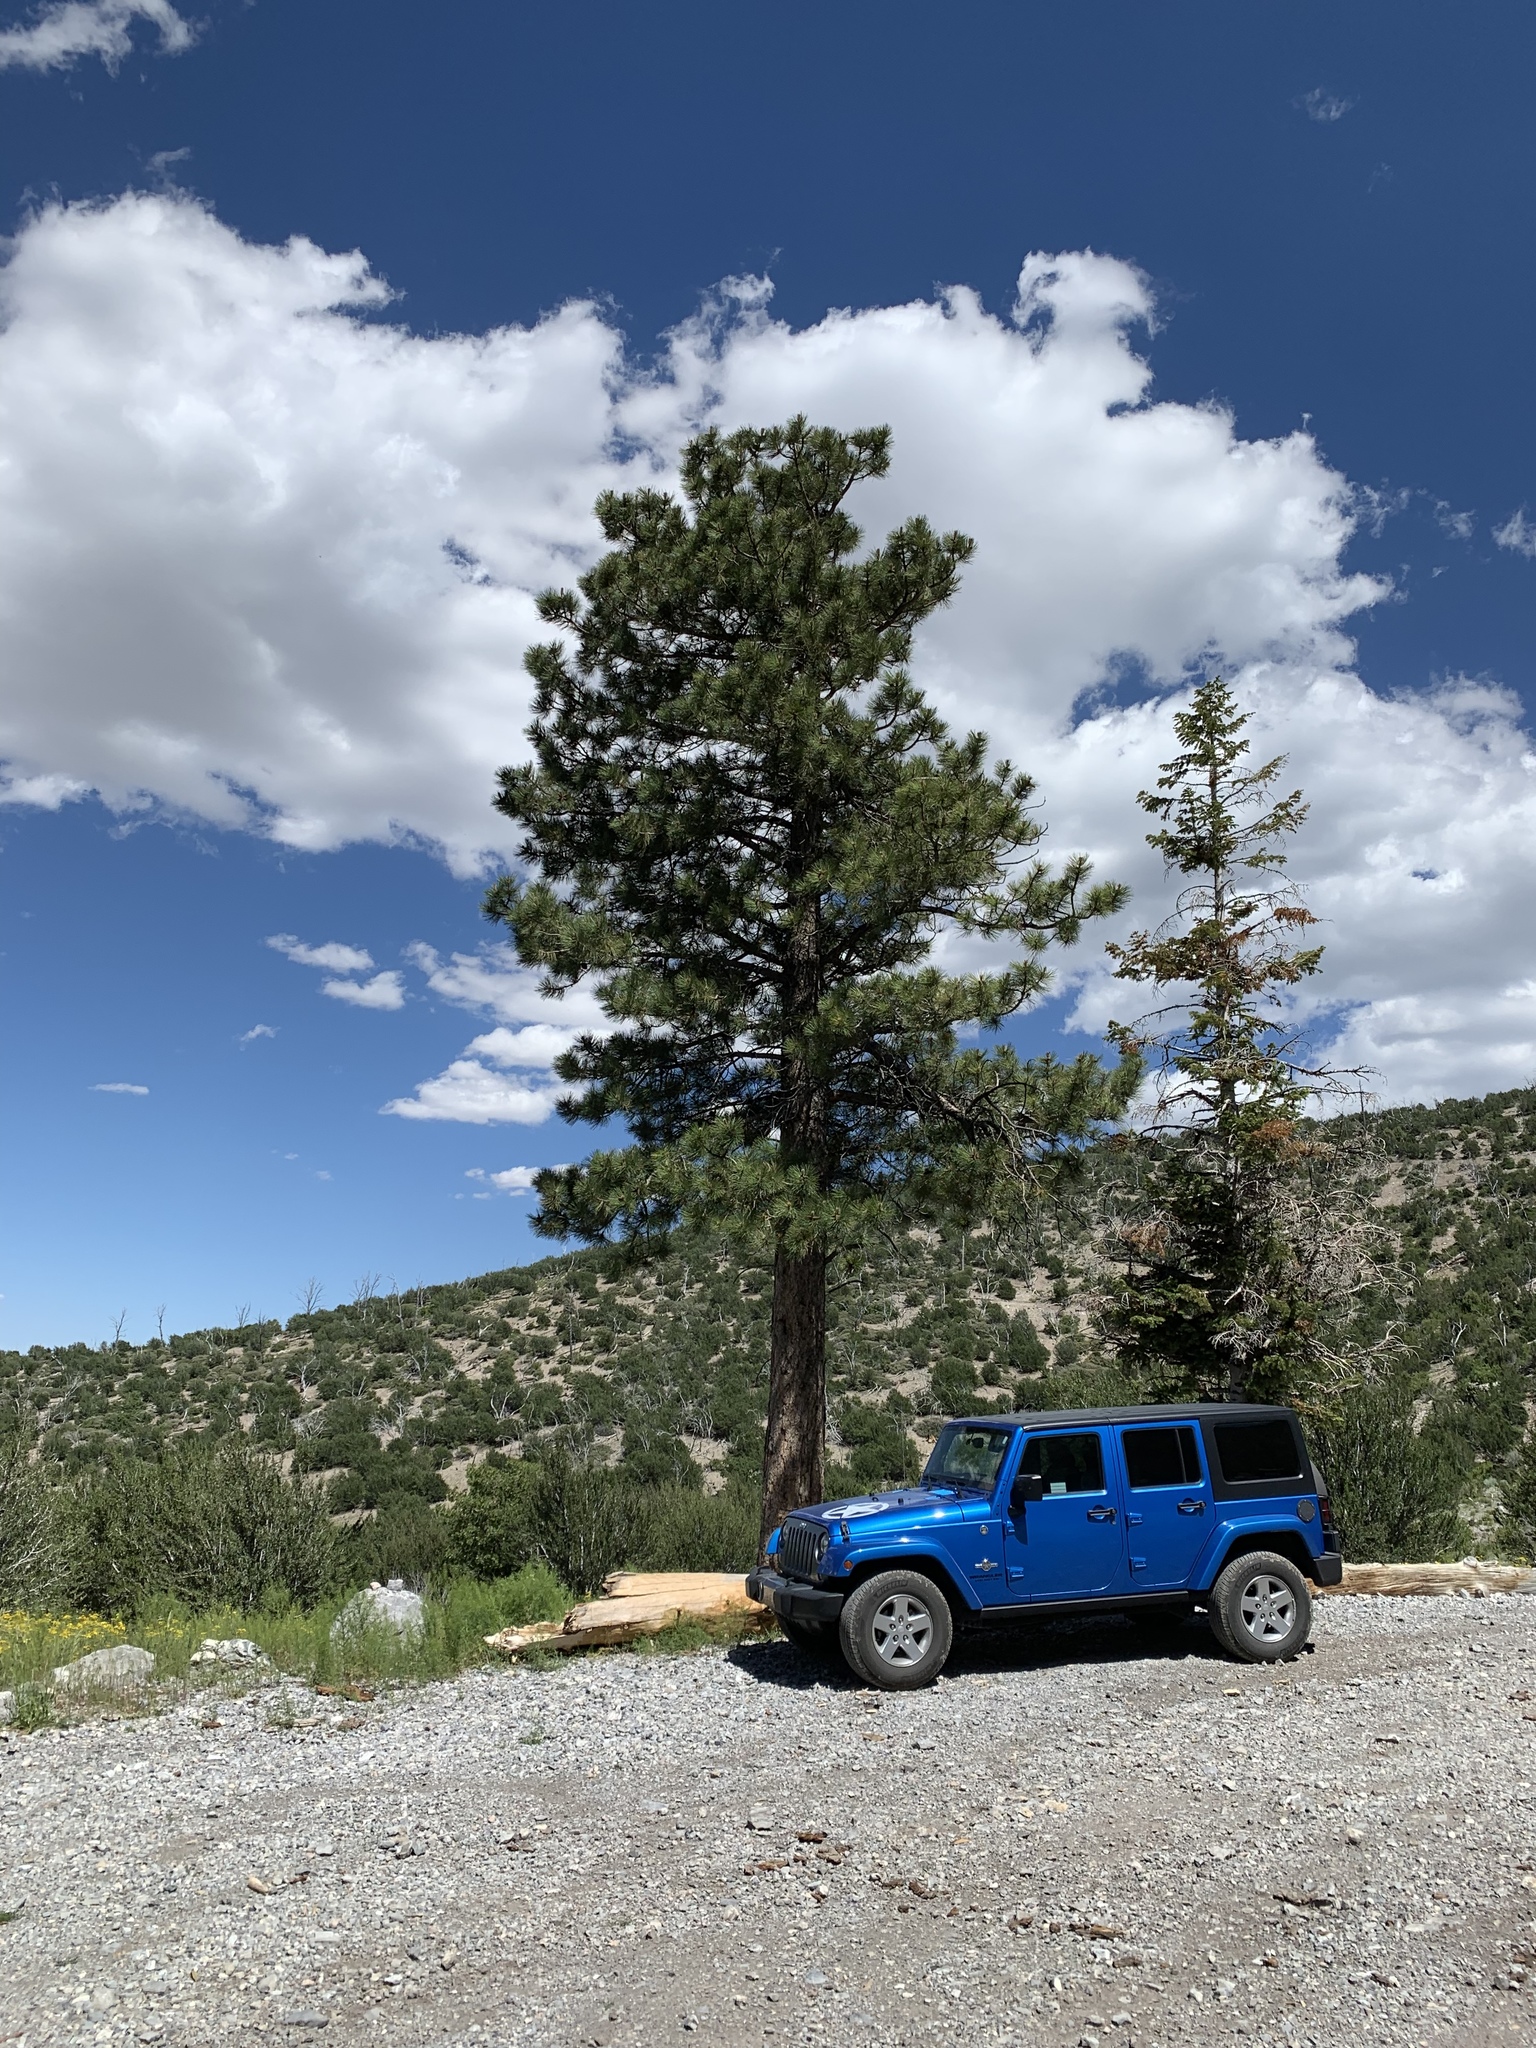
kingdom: Plantae
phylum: Tracheophyta
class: Pinopsida
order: Pinales
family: Pinaceae
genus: Pinus
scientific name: Pinus ponderosa
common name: Western yellow-pine
